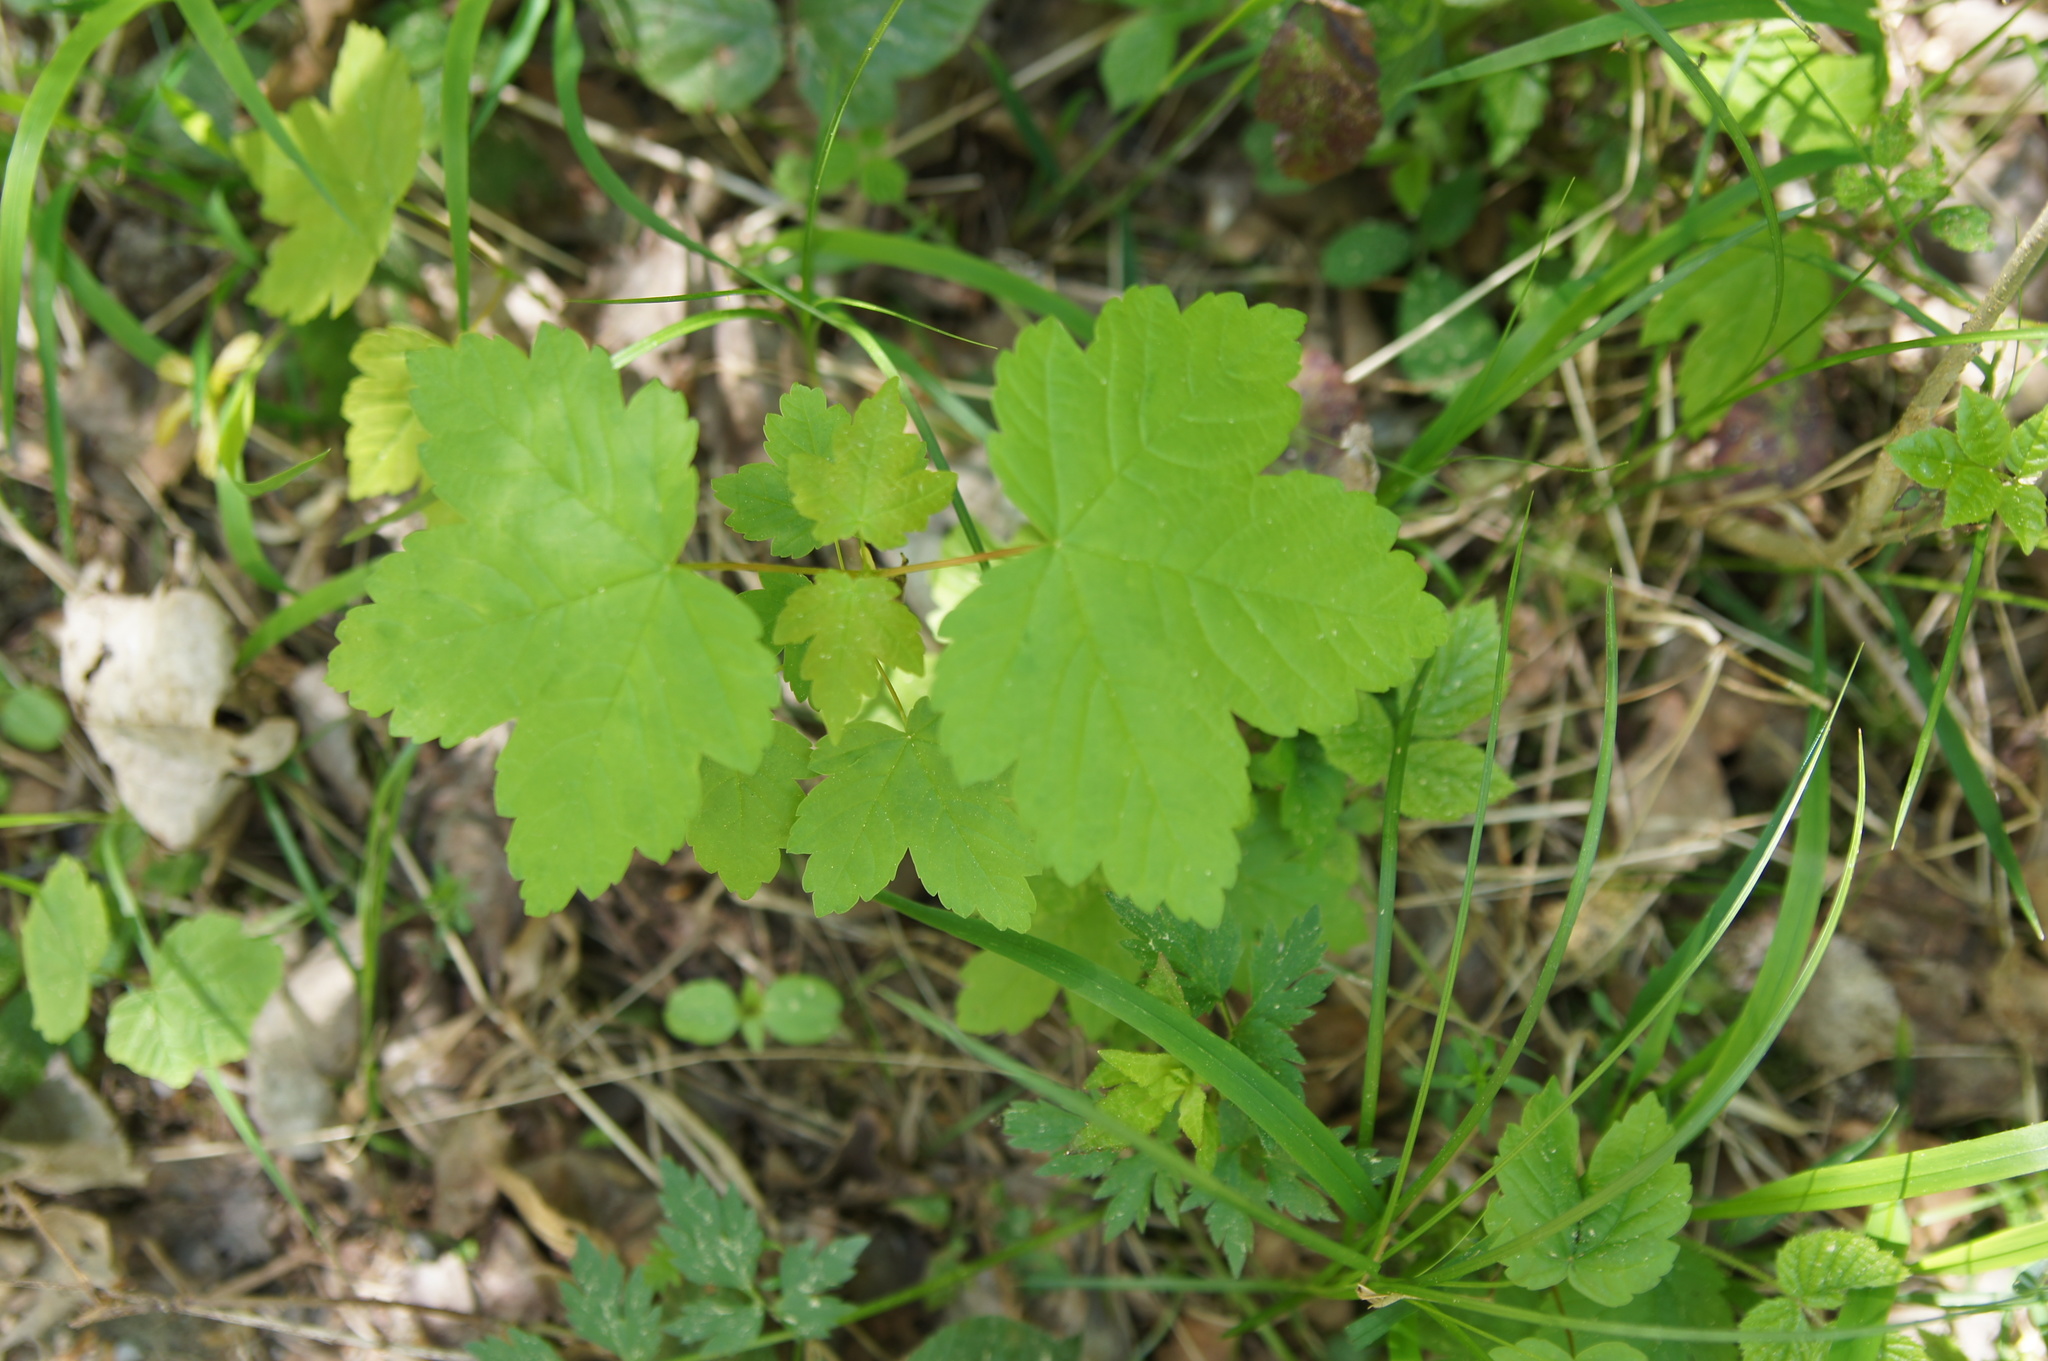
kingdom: Plantae
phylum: Tracheophyta
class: Magnoliopsida
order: Sapindales
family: Sapindaceae
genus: Acer
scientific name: Acer pseudoplatanus
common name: Sycamore
